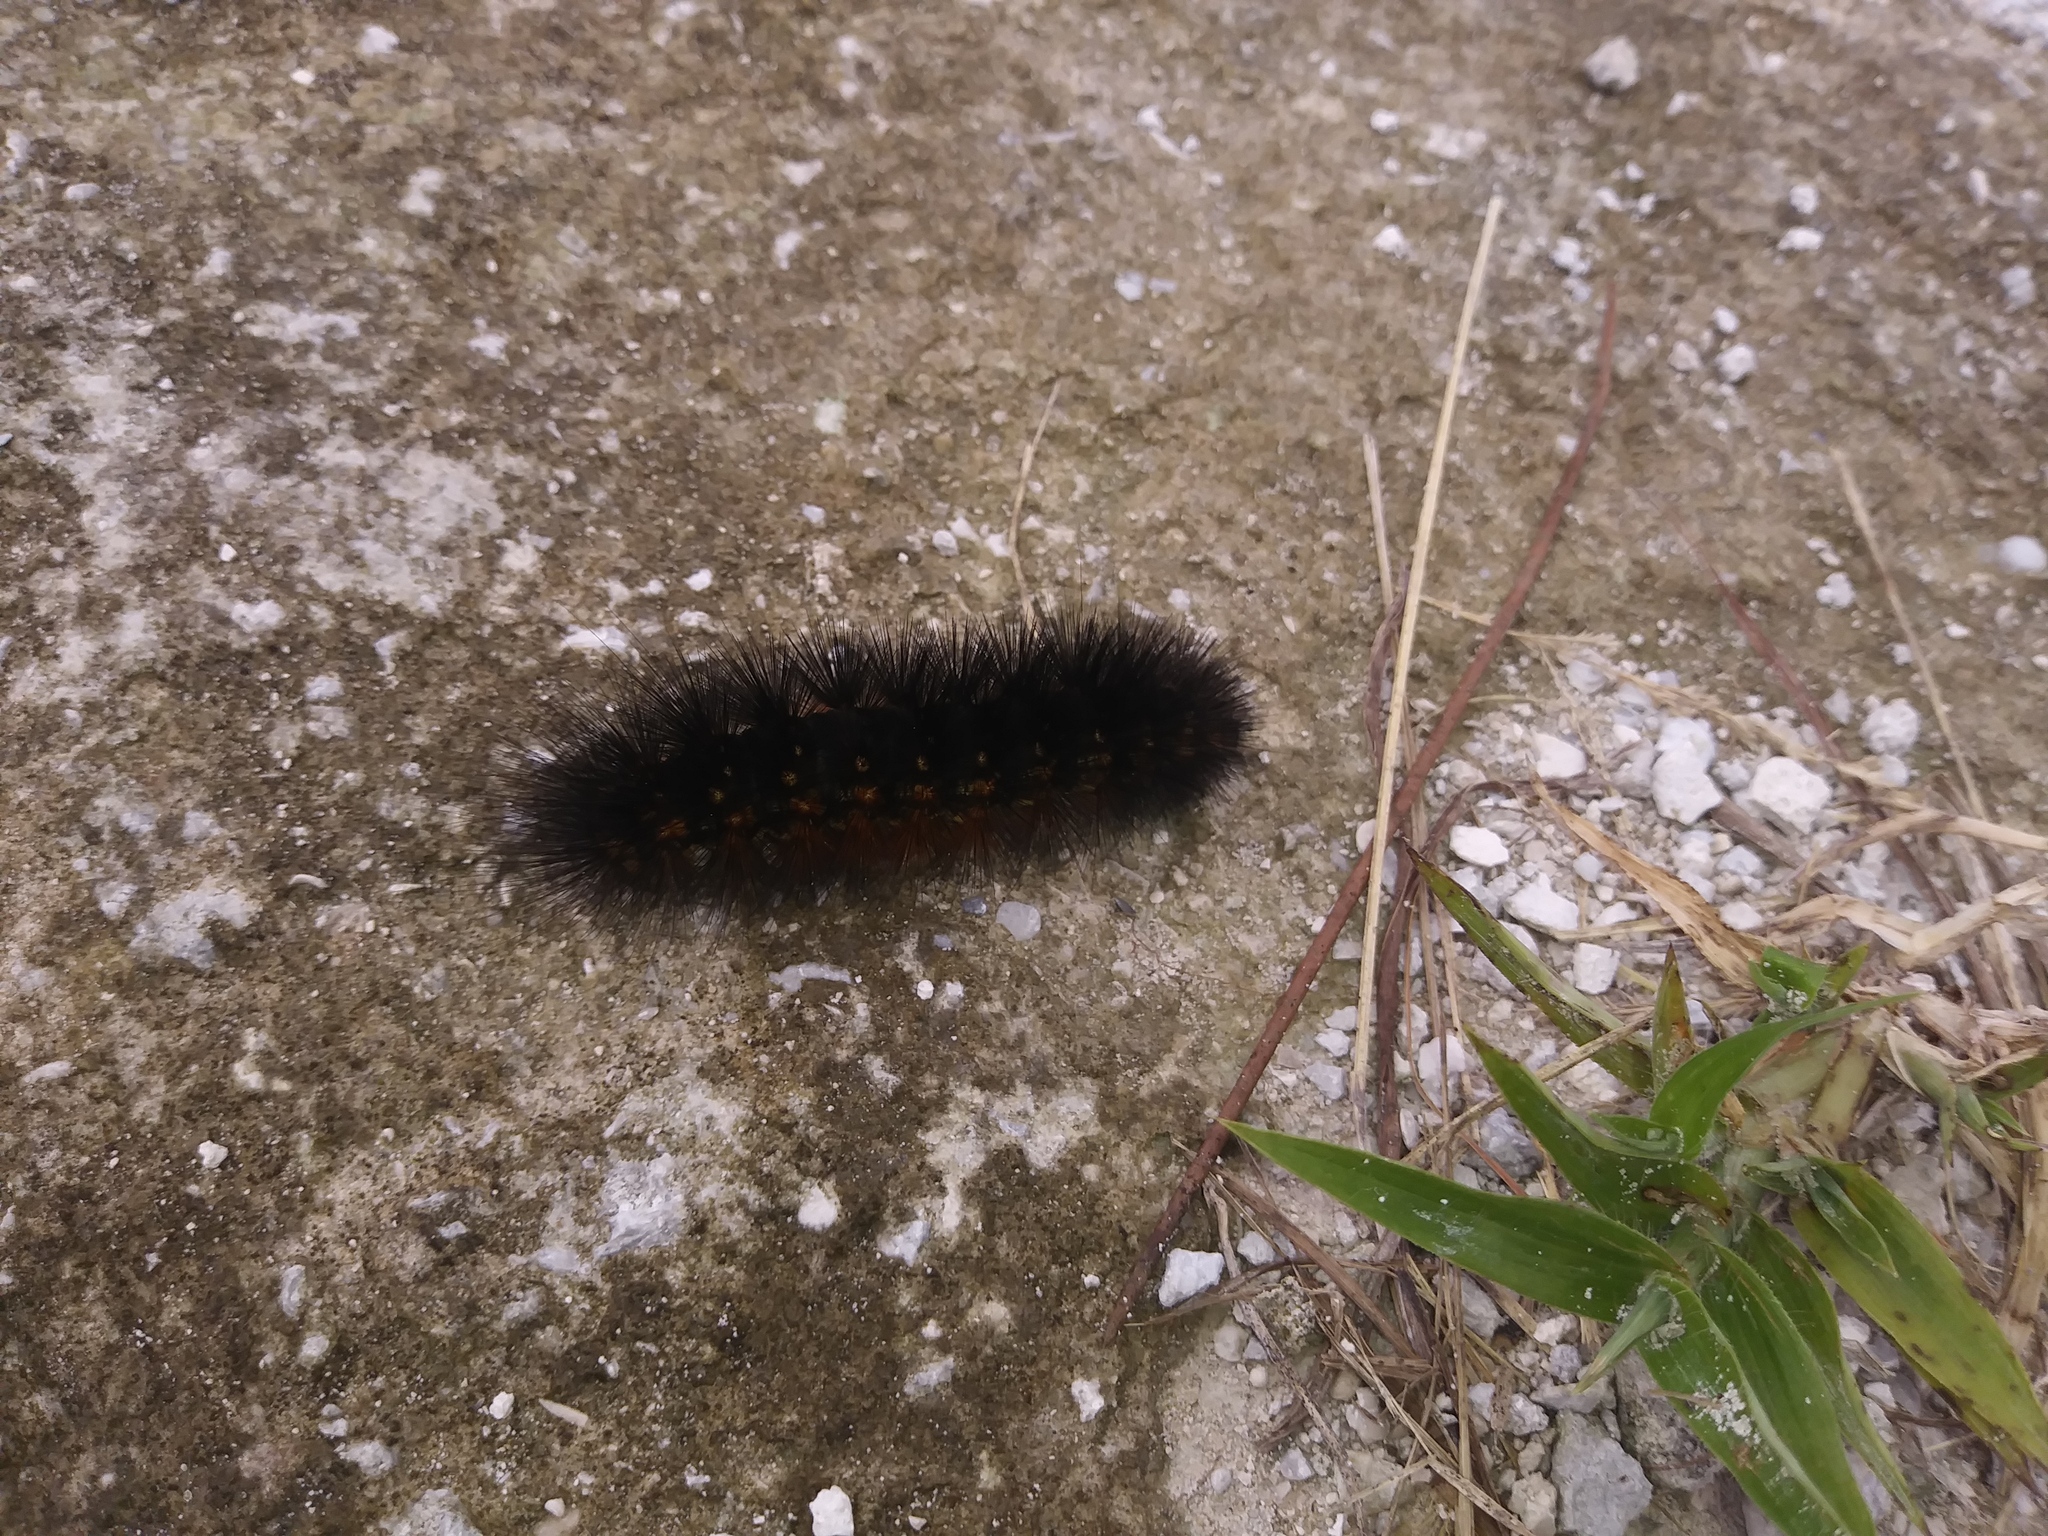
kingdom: Animalia
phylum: Arthropoda
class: Insecta
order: Lepidoptera
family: Erebidae
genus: Estigmene
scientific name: Estigmene acrea
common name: Salt marsh moth
